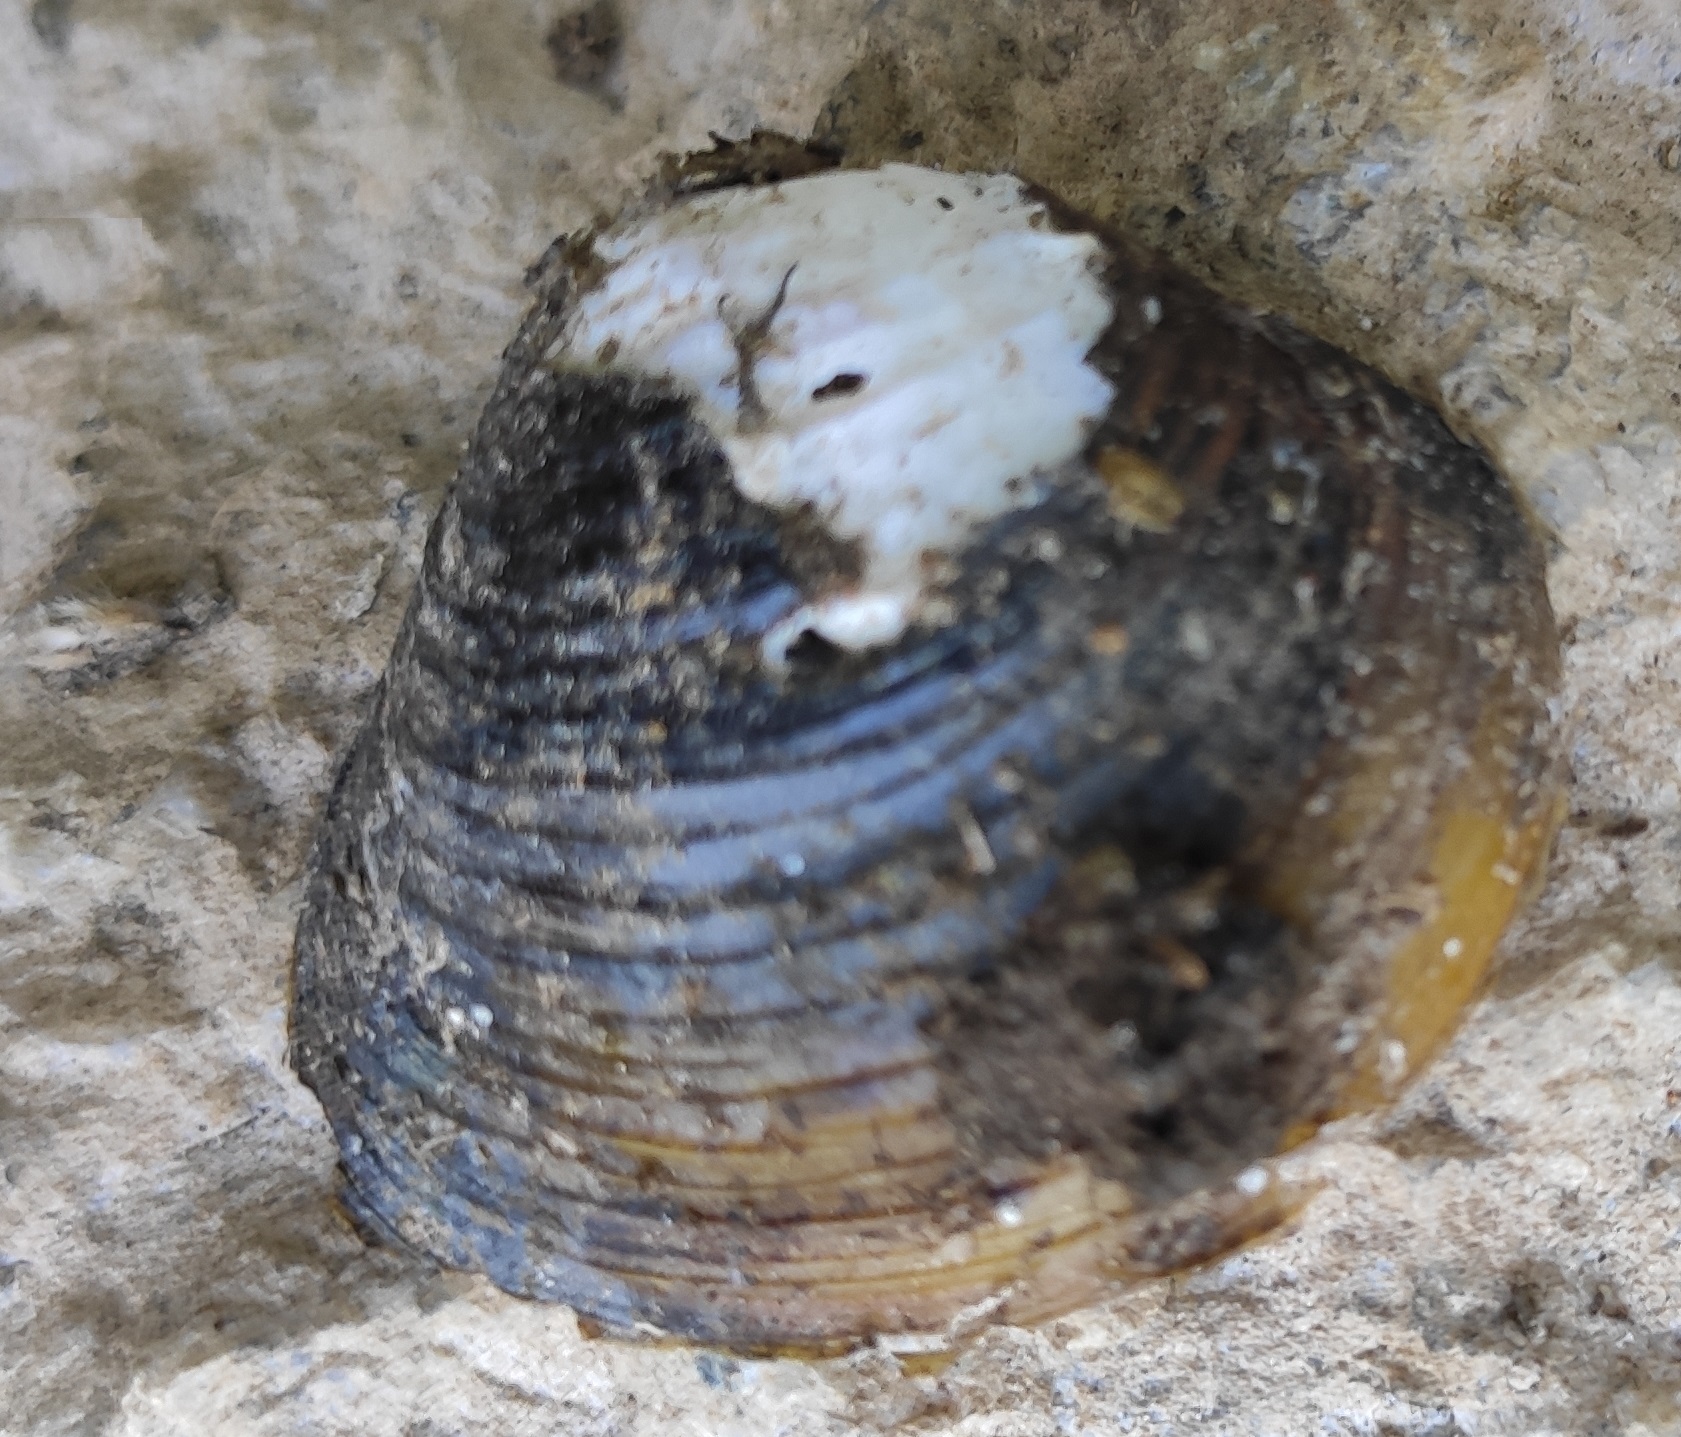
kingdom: Animalia
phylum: Mollusca
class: Bivalvia
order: Venerida
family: Cyrenidae
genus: Corbicula
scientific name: Corbicula fluminea
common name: Asian clam
